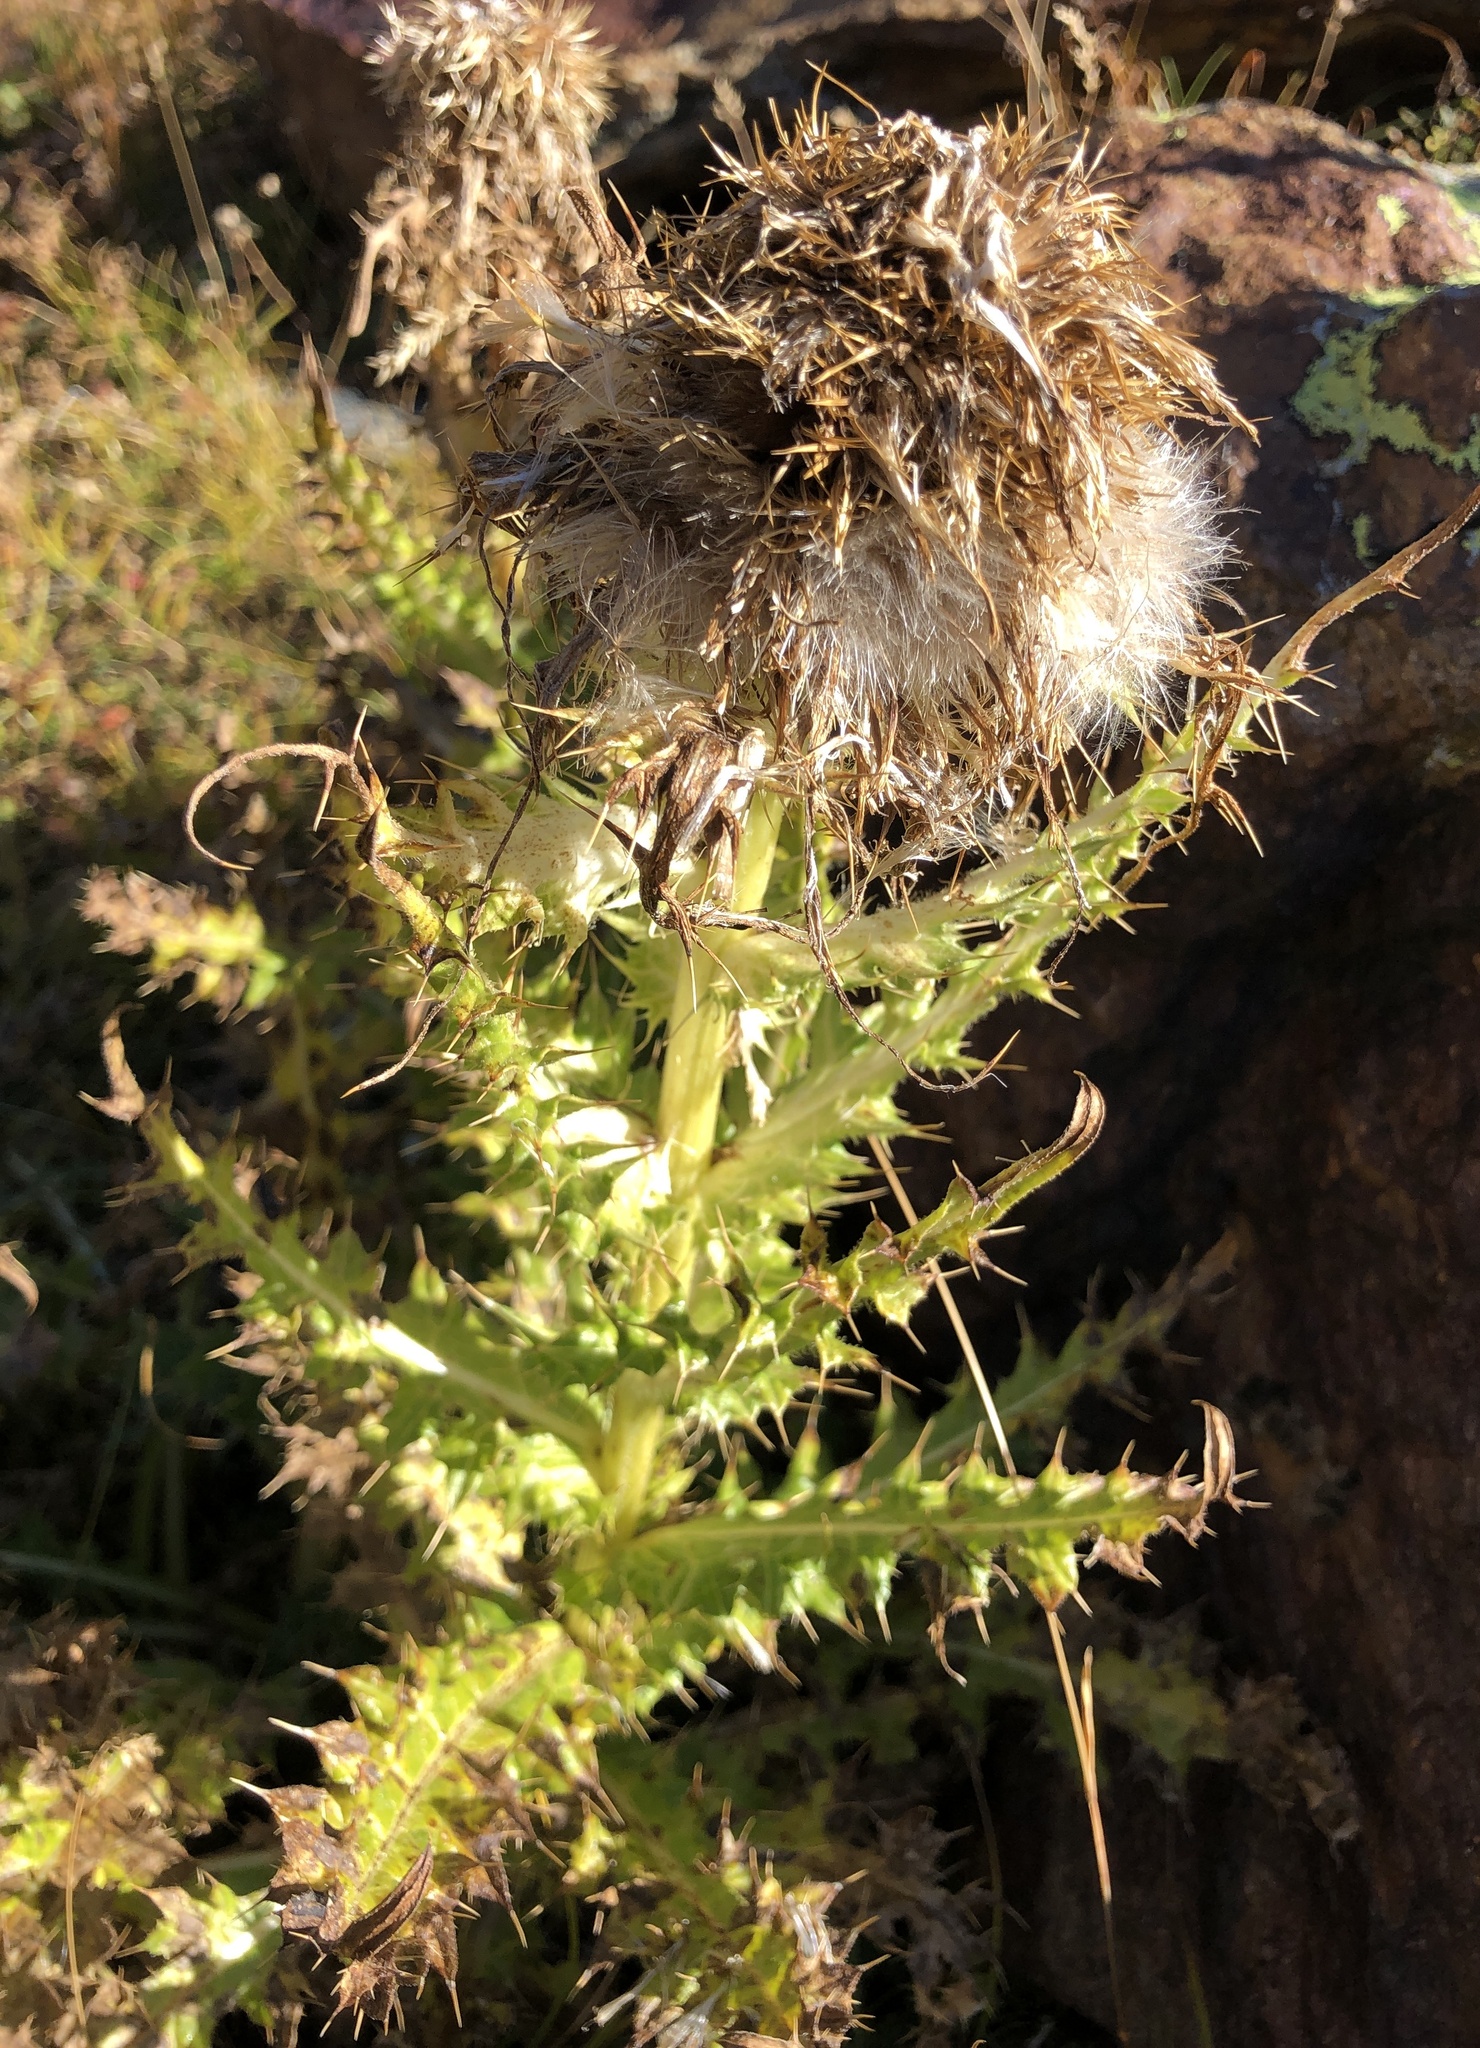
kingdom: Plantae
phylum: Tracheophyta
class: Magnoliopsida
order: Asterales
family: Asteraceae
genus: Cirsium
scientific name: Cirsium spinosissimum
